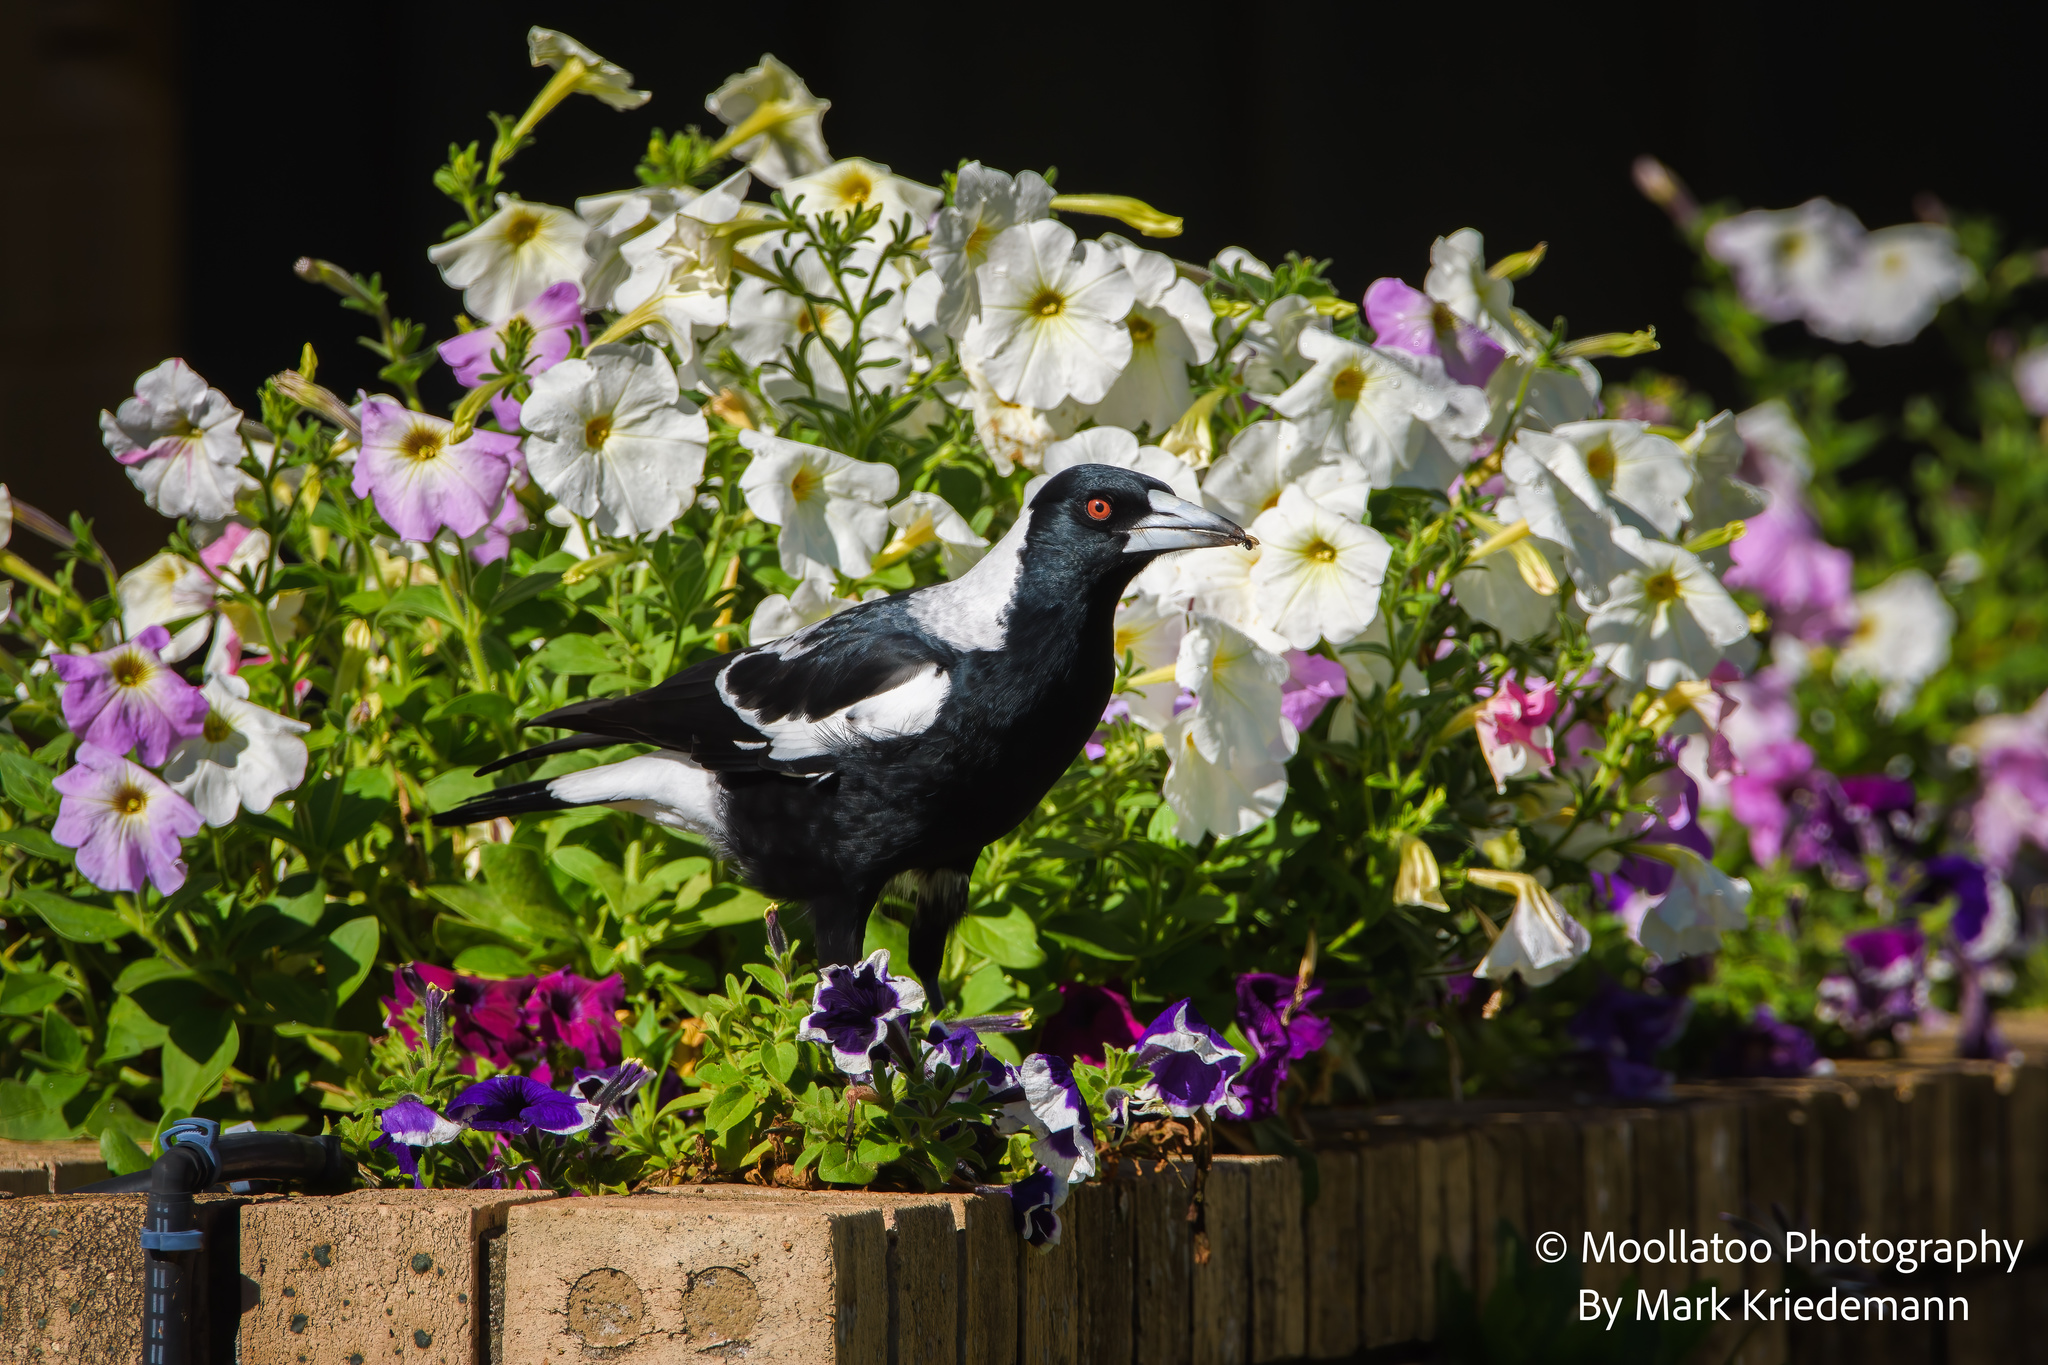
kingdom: Animalia
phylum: Chordata
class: Aves
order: Passeriformes
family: Cracticidae
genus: Gymnorhina
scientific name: Gymnorhina tibicen
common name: Australian magpie
